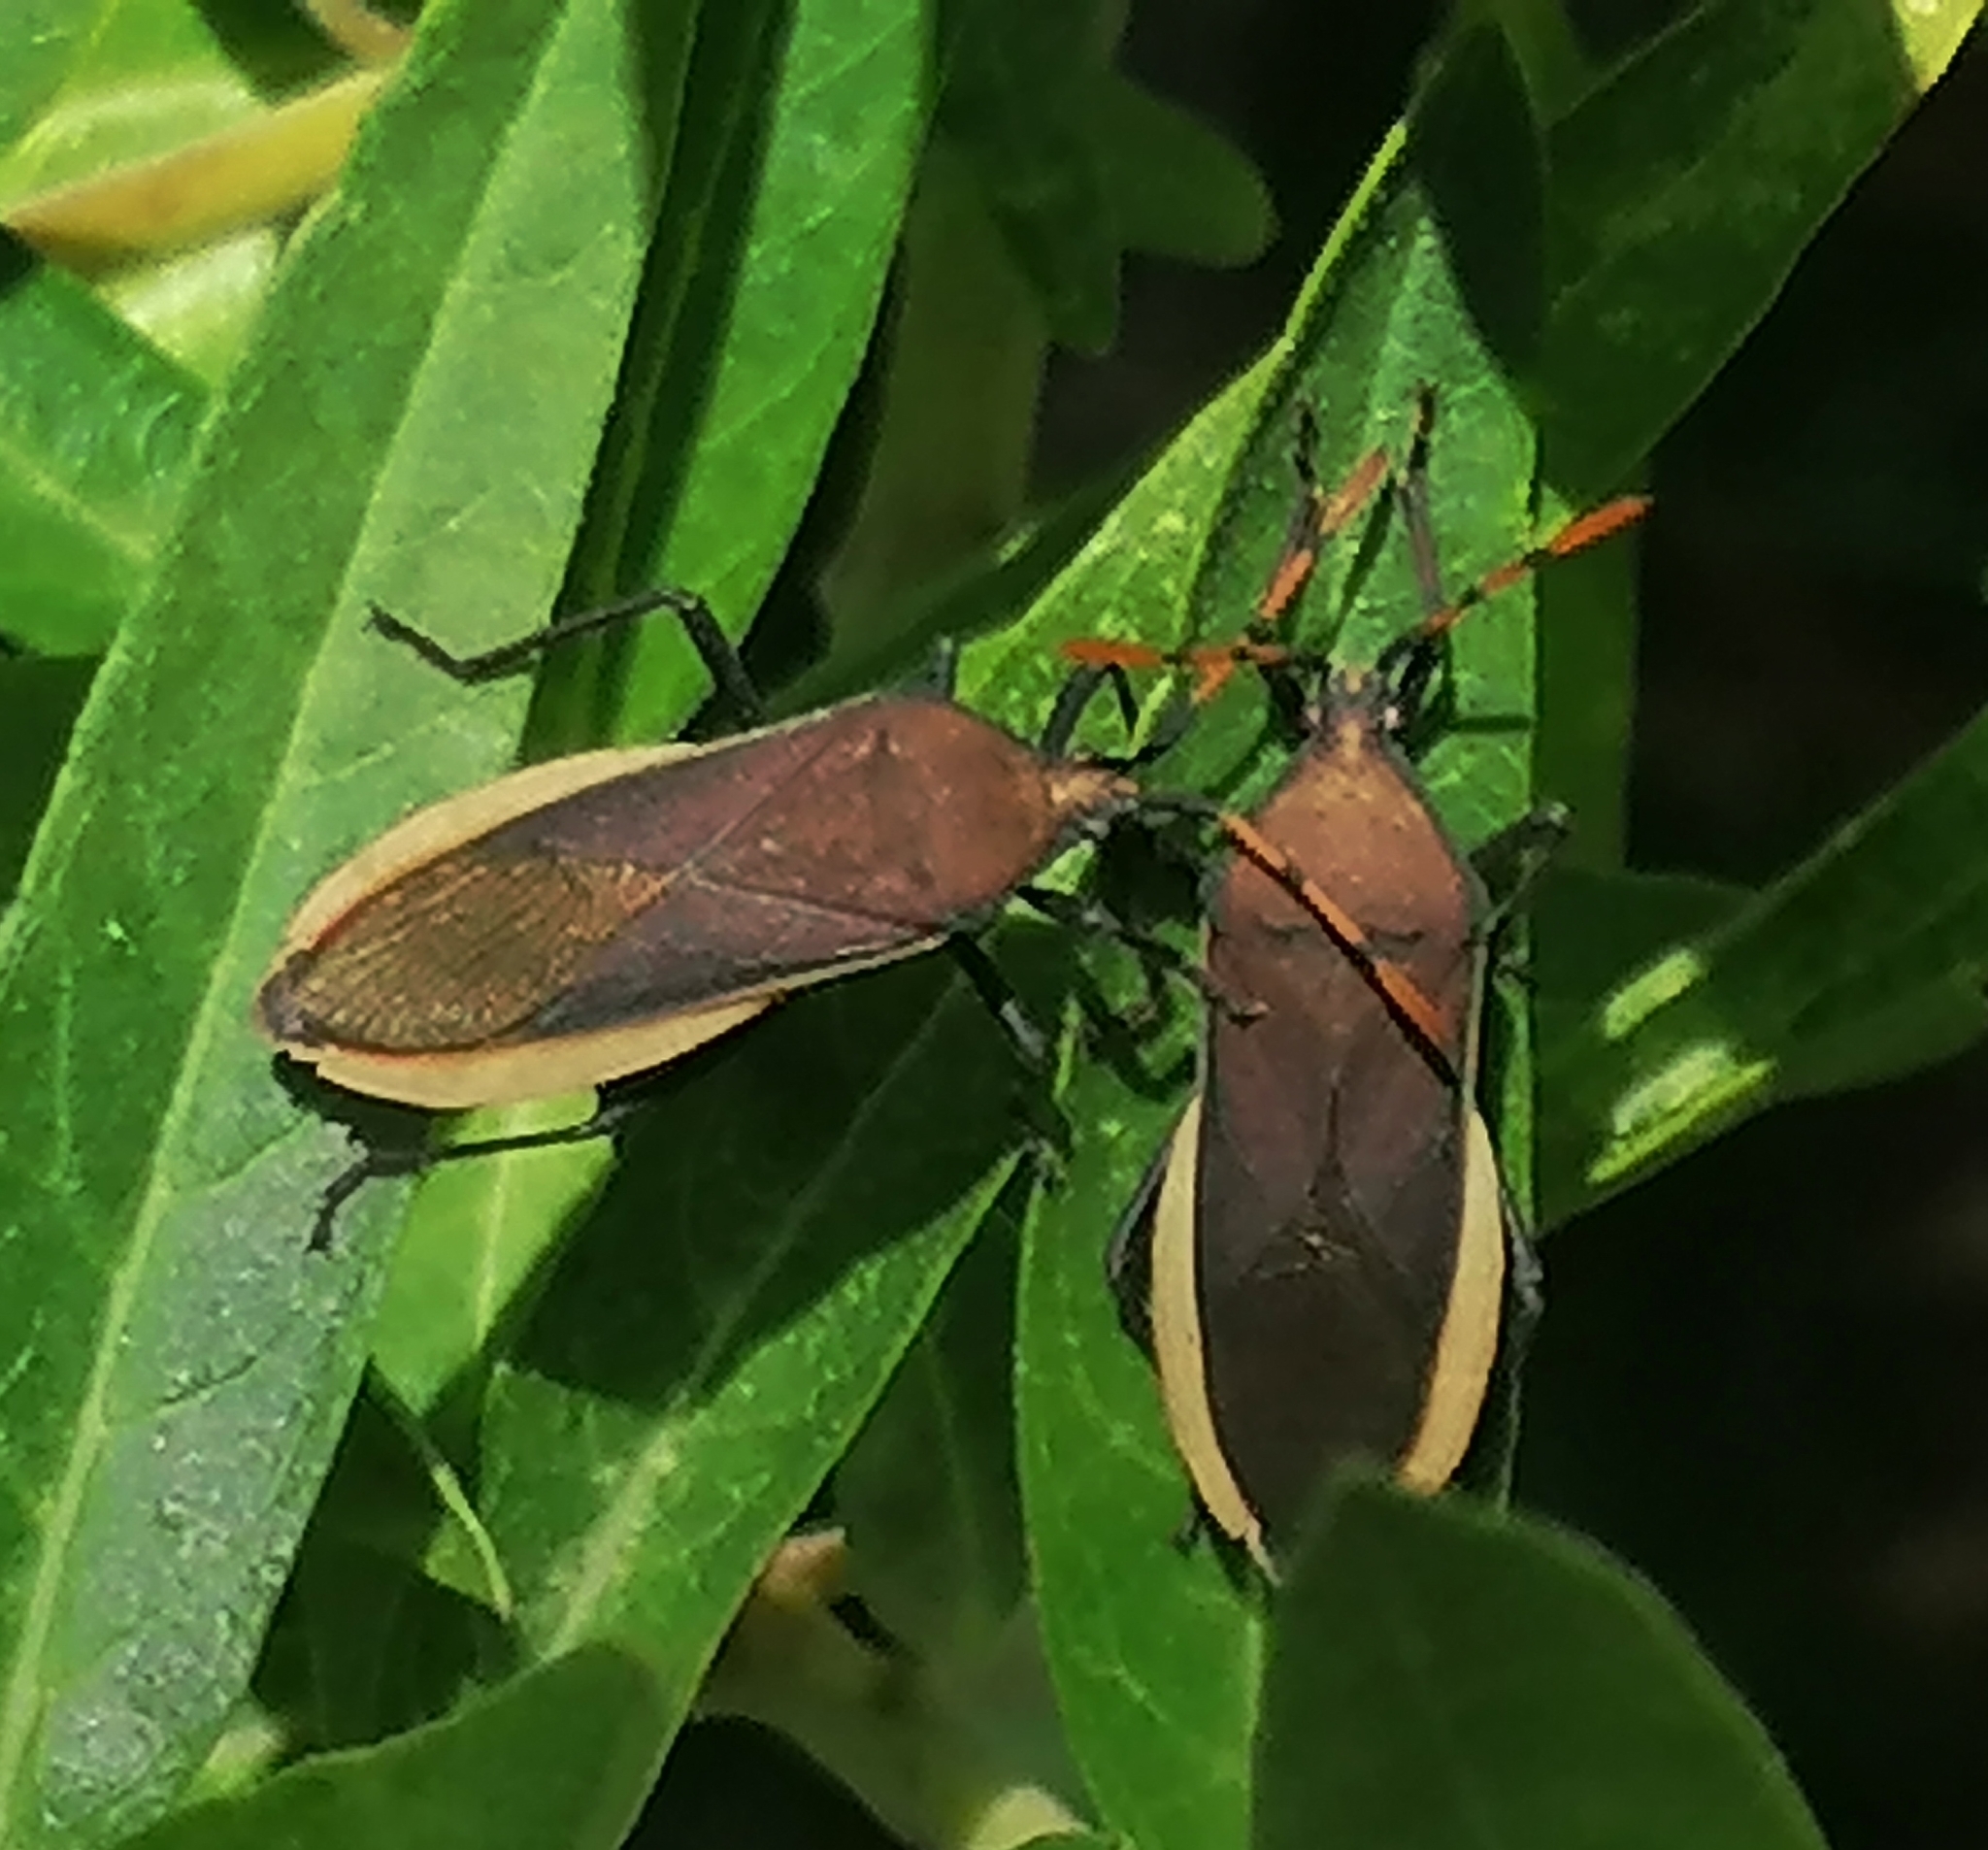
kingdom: Animalia
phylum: Arthropoda
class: Insecta
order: Hemiptera
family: Coreidae
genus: Homoeocerus
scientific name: Homoeocerus annulatus
